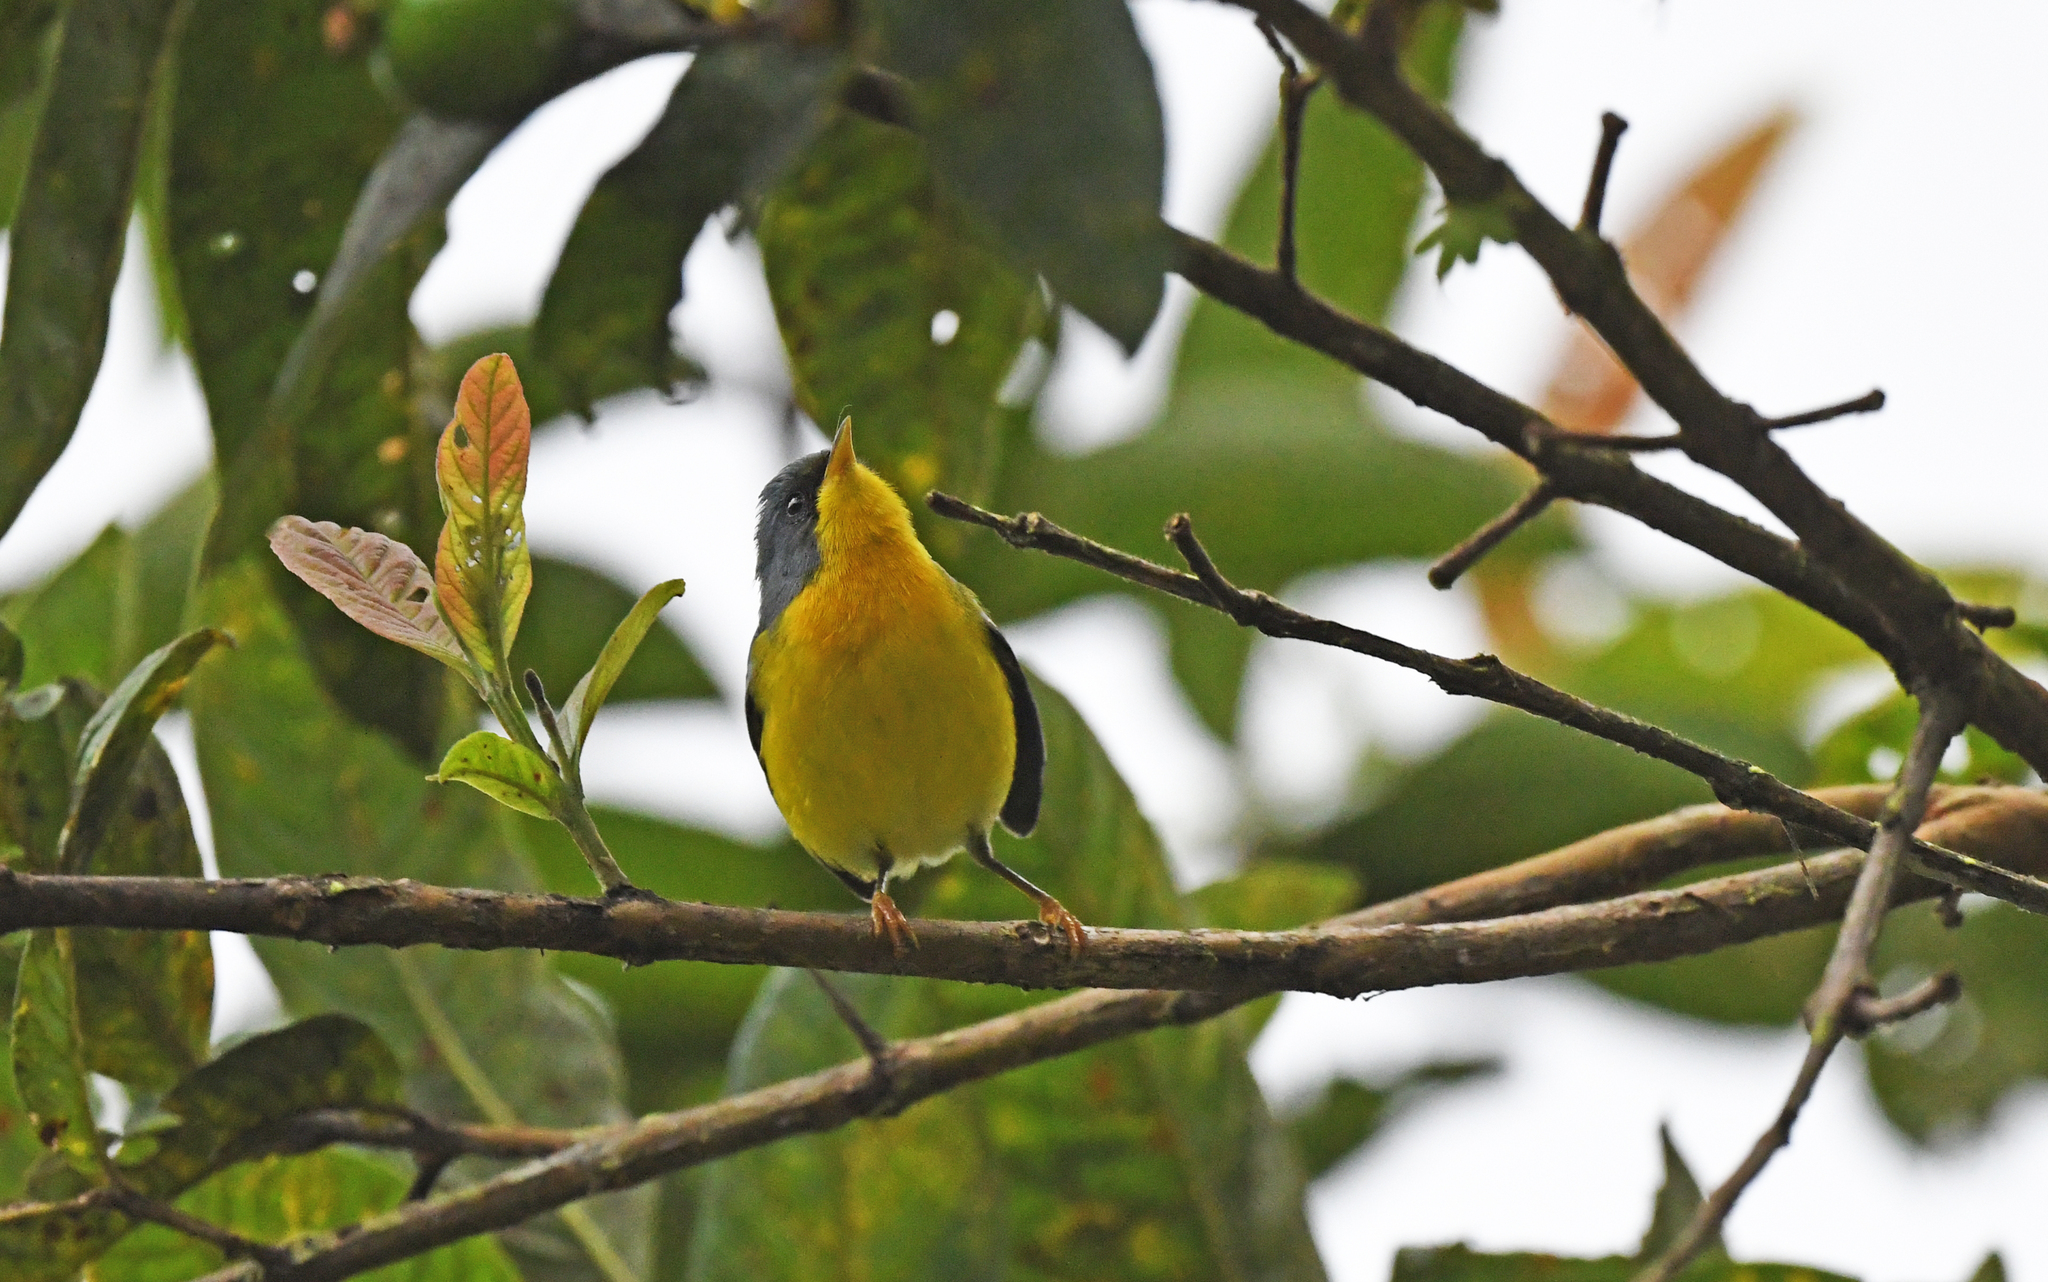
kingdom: Animalia
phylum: Chordata
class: Aves
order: Passeriformes
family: Parulidae
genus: Setophaga
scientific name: Setophaga pitiayumi
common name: Tropical parula
